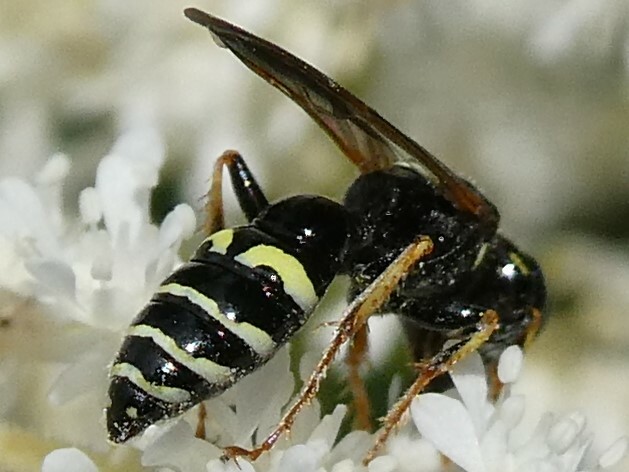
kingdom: Animalia
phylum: Arthropoda
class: Insecta
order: Hymenoptera
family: Crabronidae
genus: Philanthus
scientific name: Philanthus bilunatus
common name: Two moons beewolf
